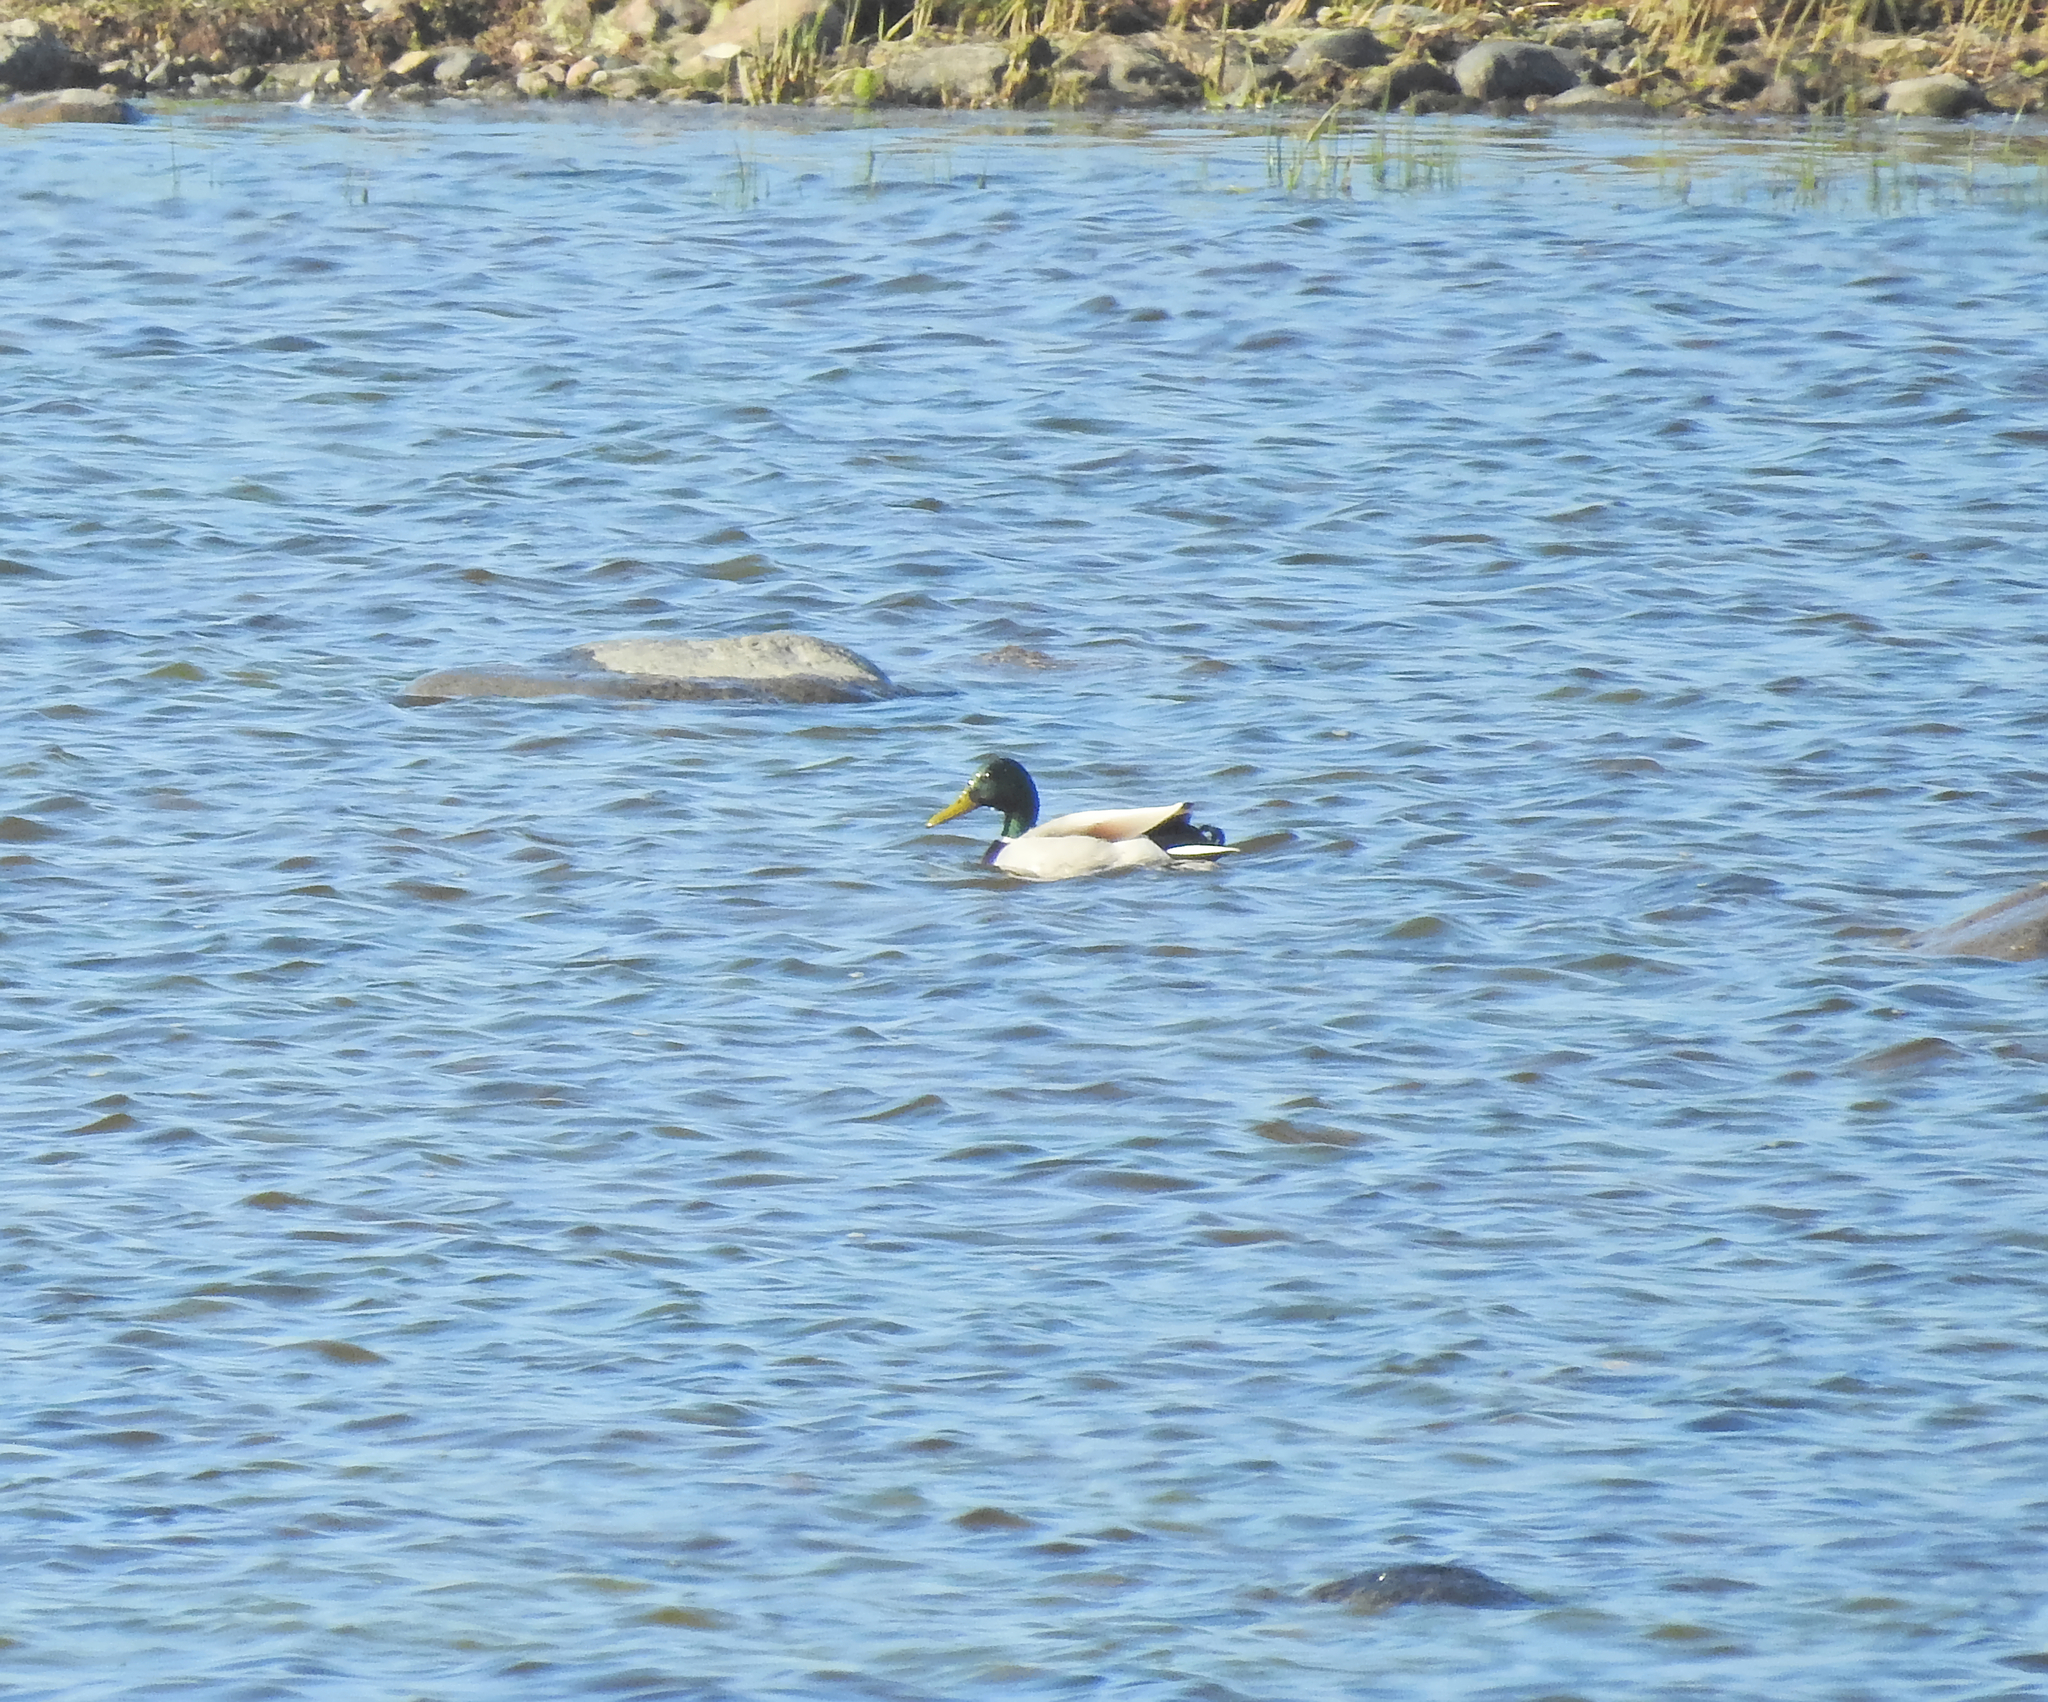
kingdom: Animalia
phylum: Chordata
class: Aves
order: Anseriformes
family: Anatidae
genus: Anas
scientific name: Anas platyrhynchos
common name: Mallard
